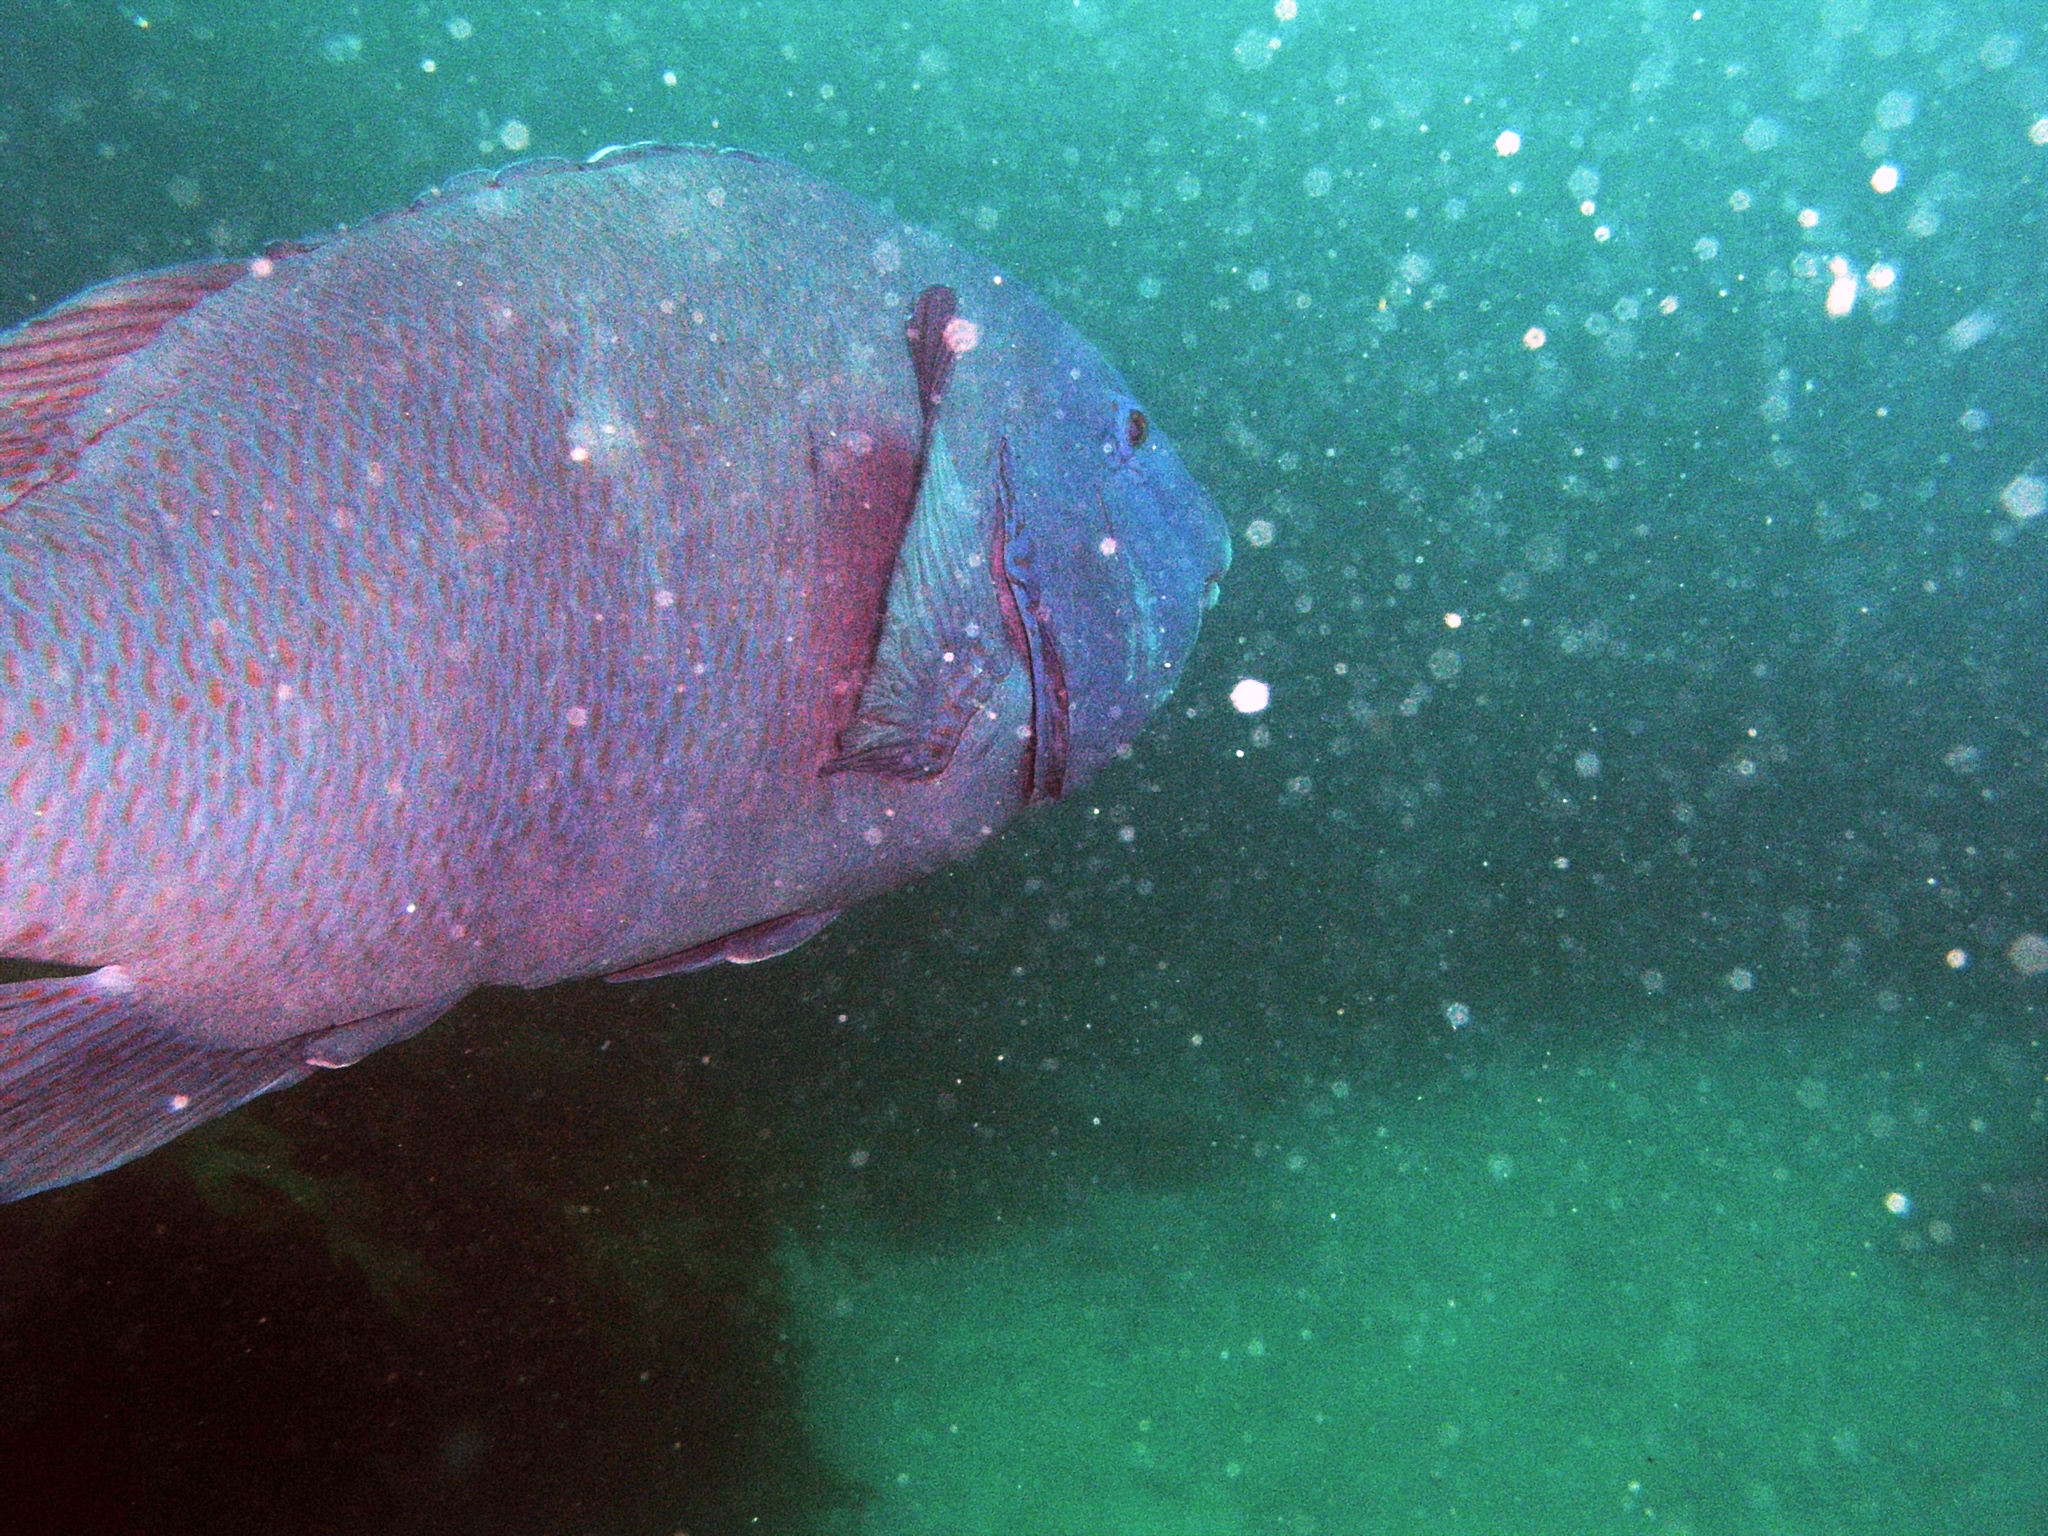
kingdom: Animalia
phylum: Chordata
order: Perciformes
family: Labridae
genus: Achoerodus
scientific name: Achoerodus viridis
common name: Brown groper
